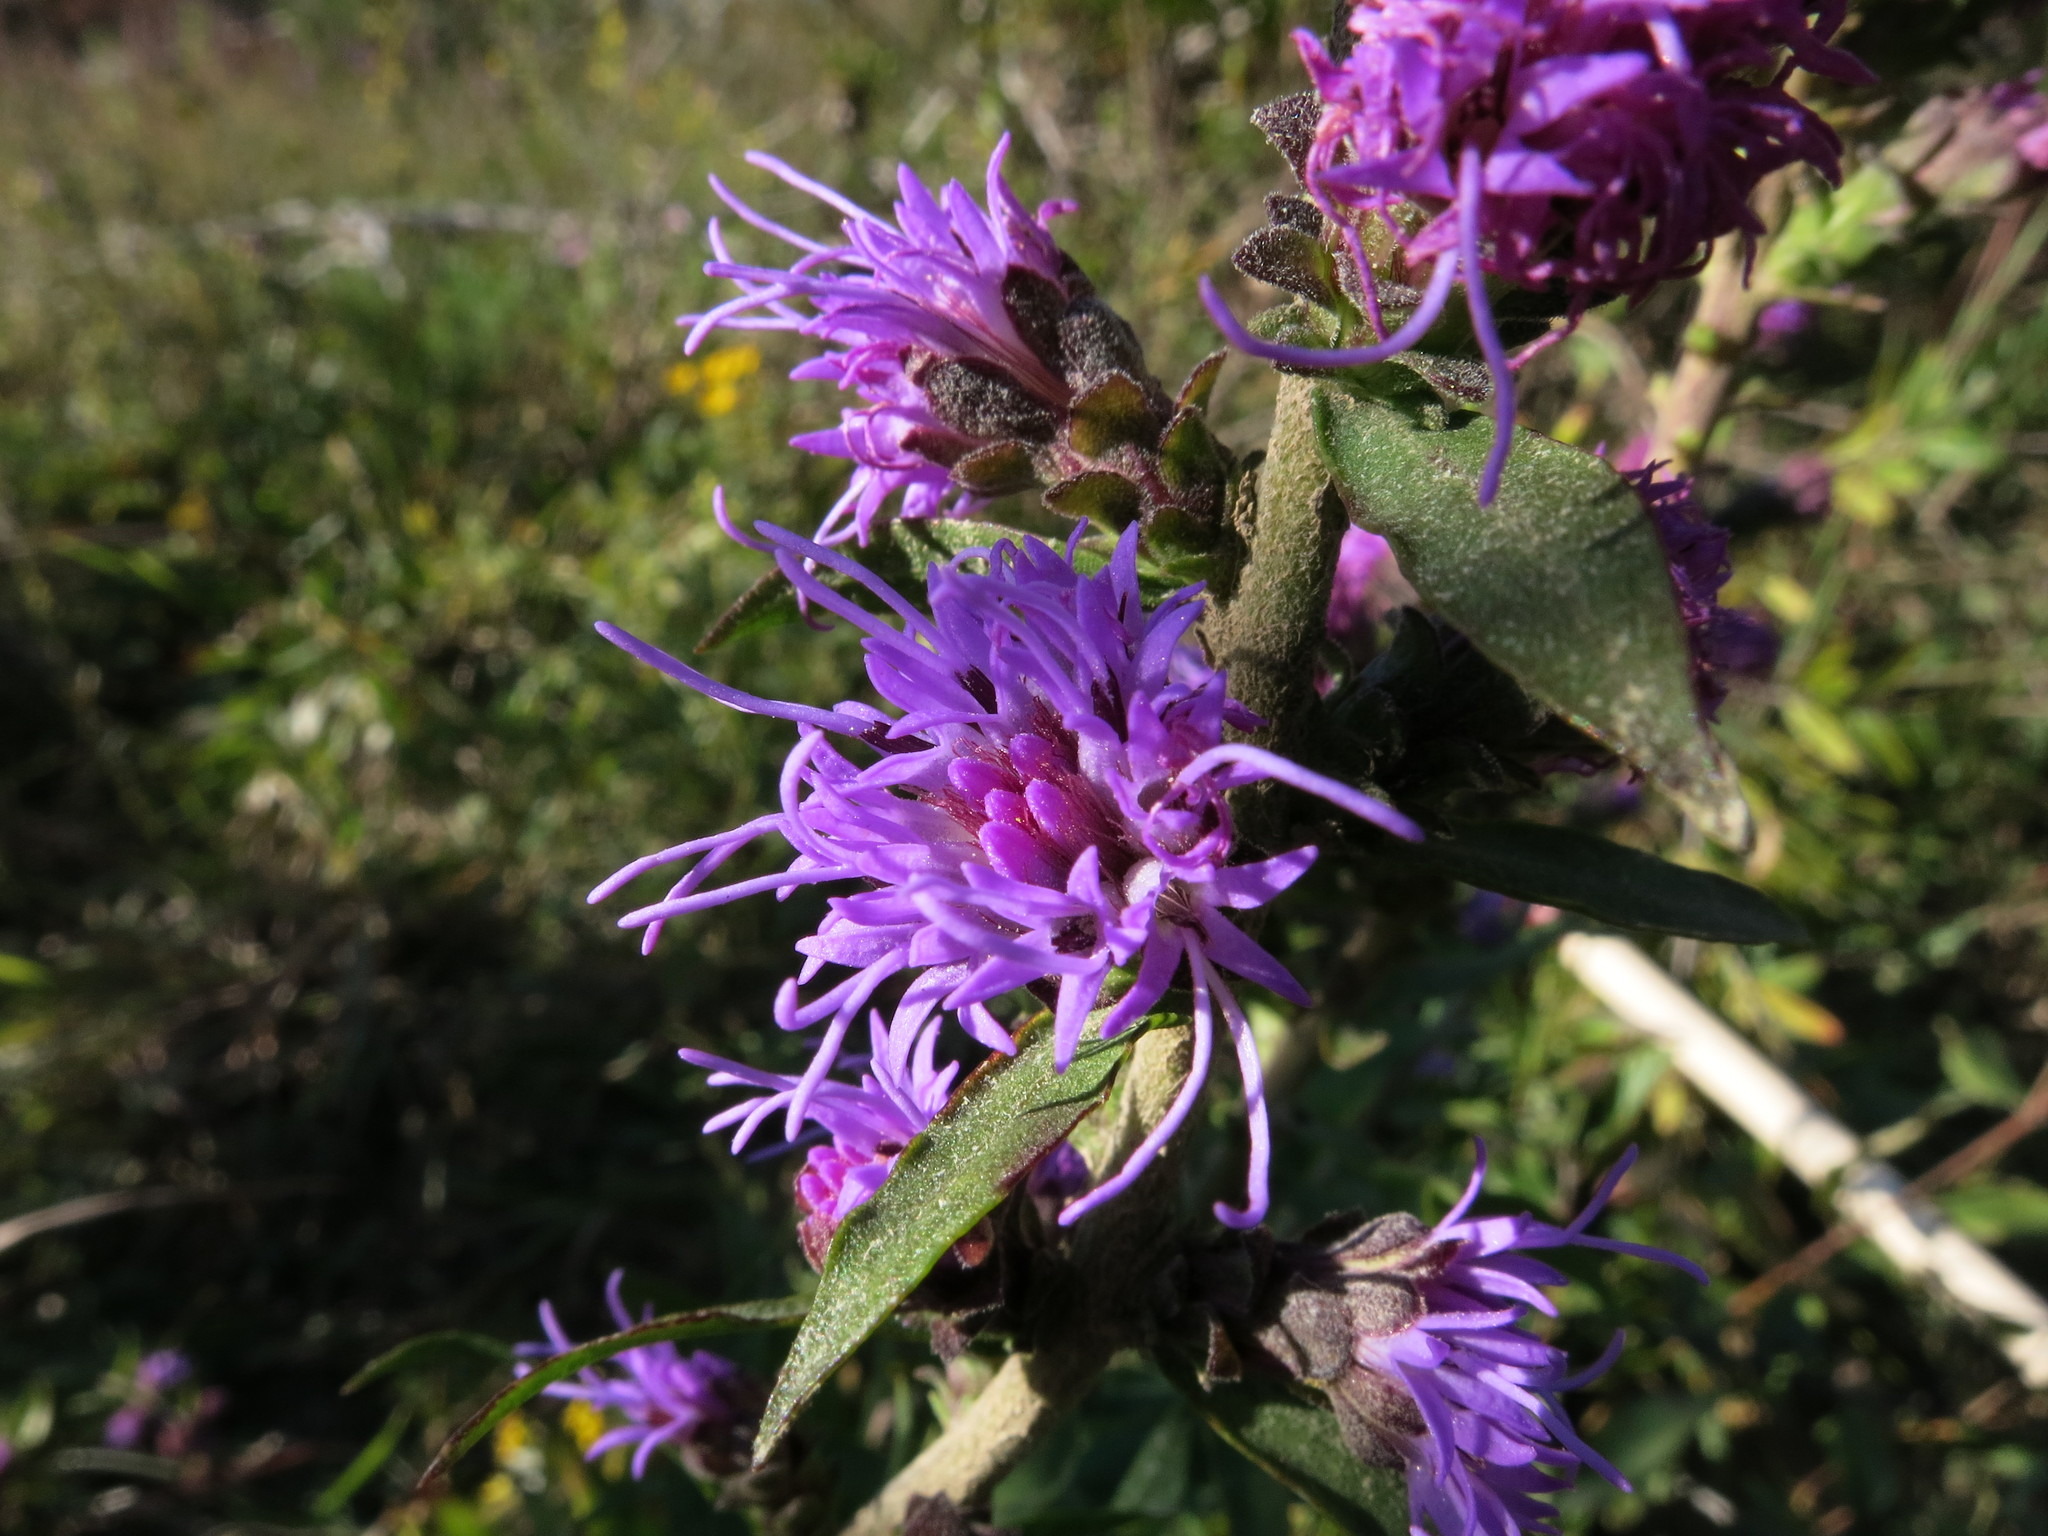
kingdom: Plantae
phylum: Tracheophyta
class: Magnoliopsida
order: Asterales
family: Asteraceae
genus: Liatris
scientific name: Liatris squarrulosa
